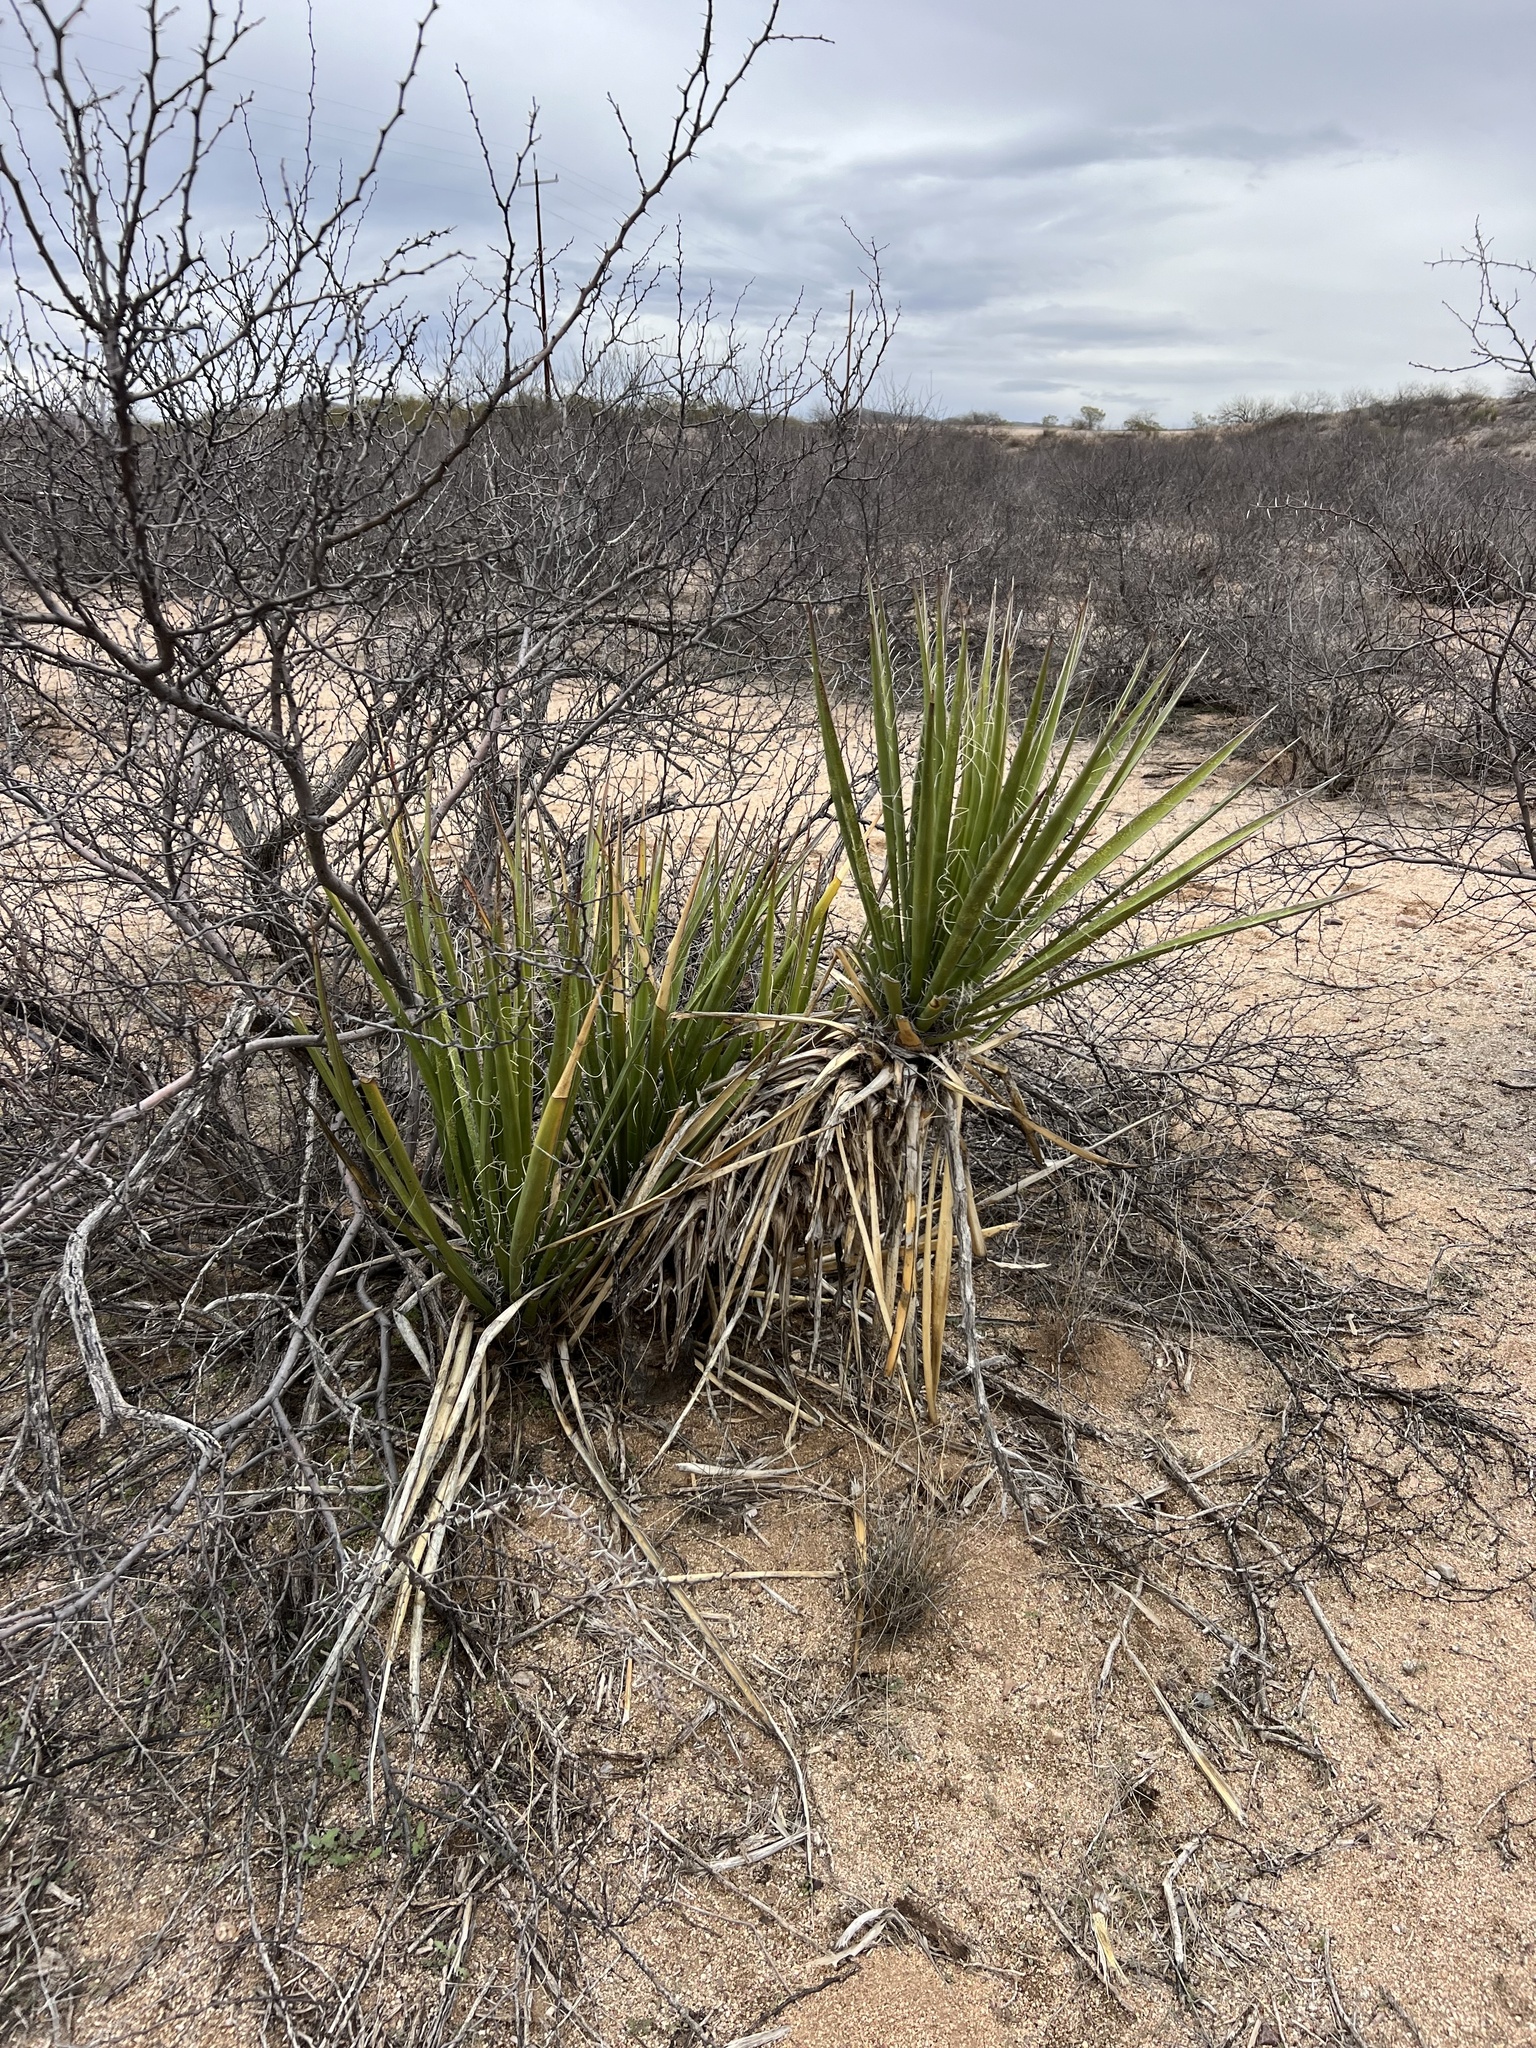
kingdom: Plantae
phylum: Tracheophyta
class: Liliopsida
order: Asparagales
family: Asparagaceae
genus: Yucca
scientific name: Yucca baccata
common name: Banana yucca
